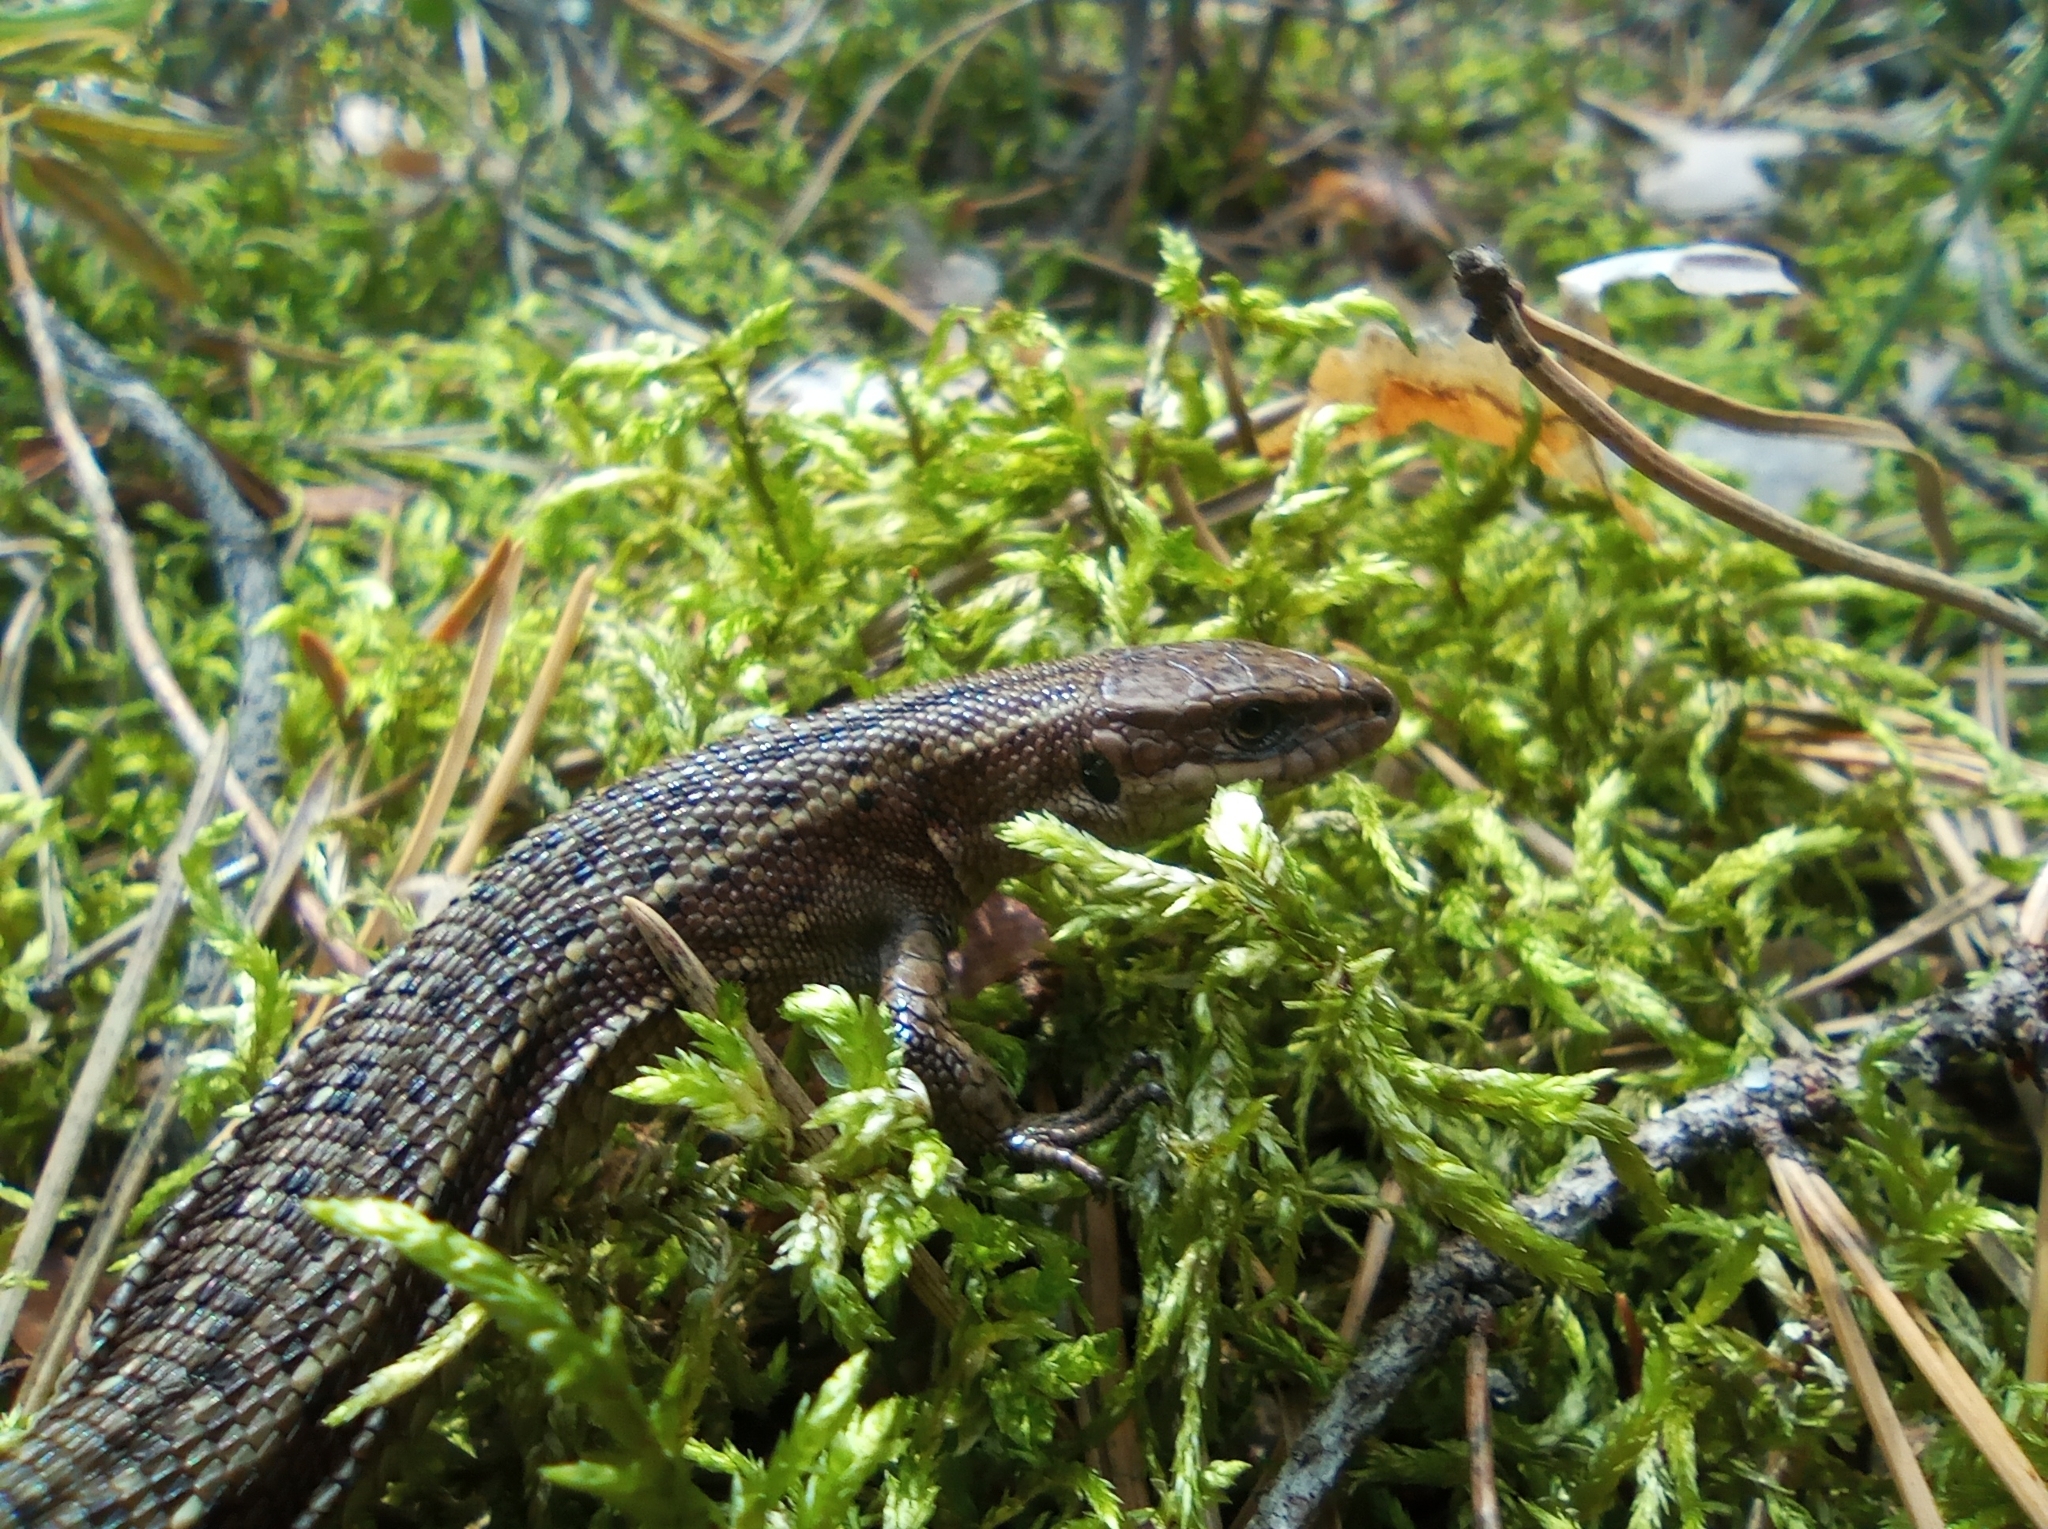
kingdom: Animalia
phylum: Chordata
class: Squamata
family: Lacertidae
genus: Zootoca
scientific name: Zootoca vivipara
